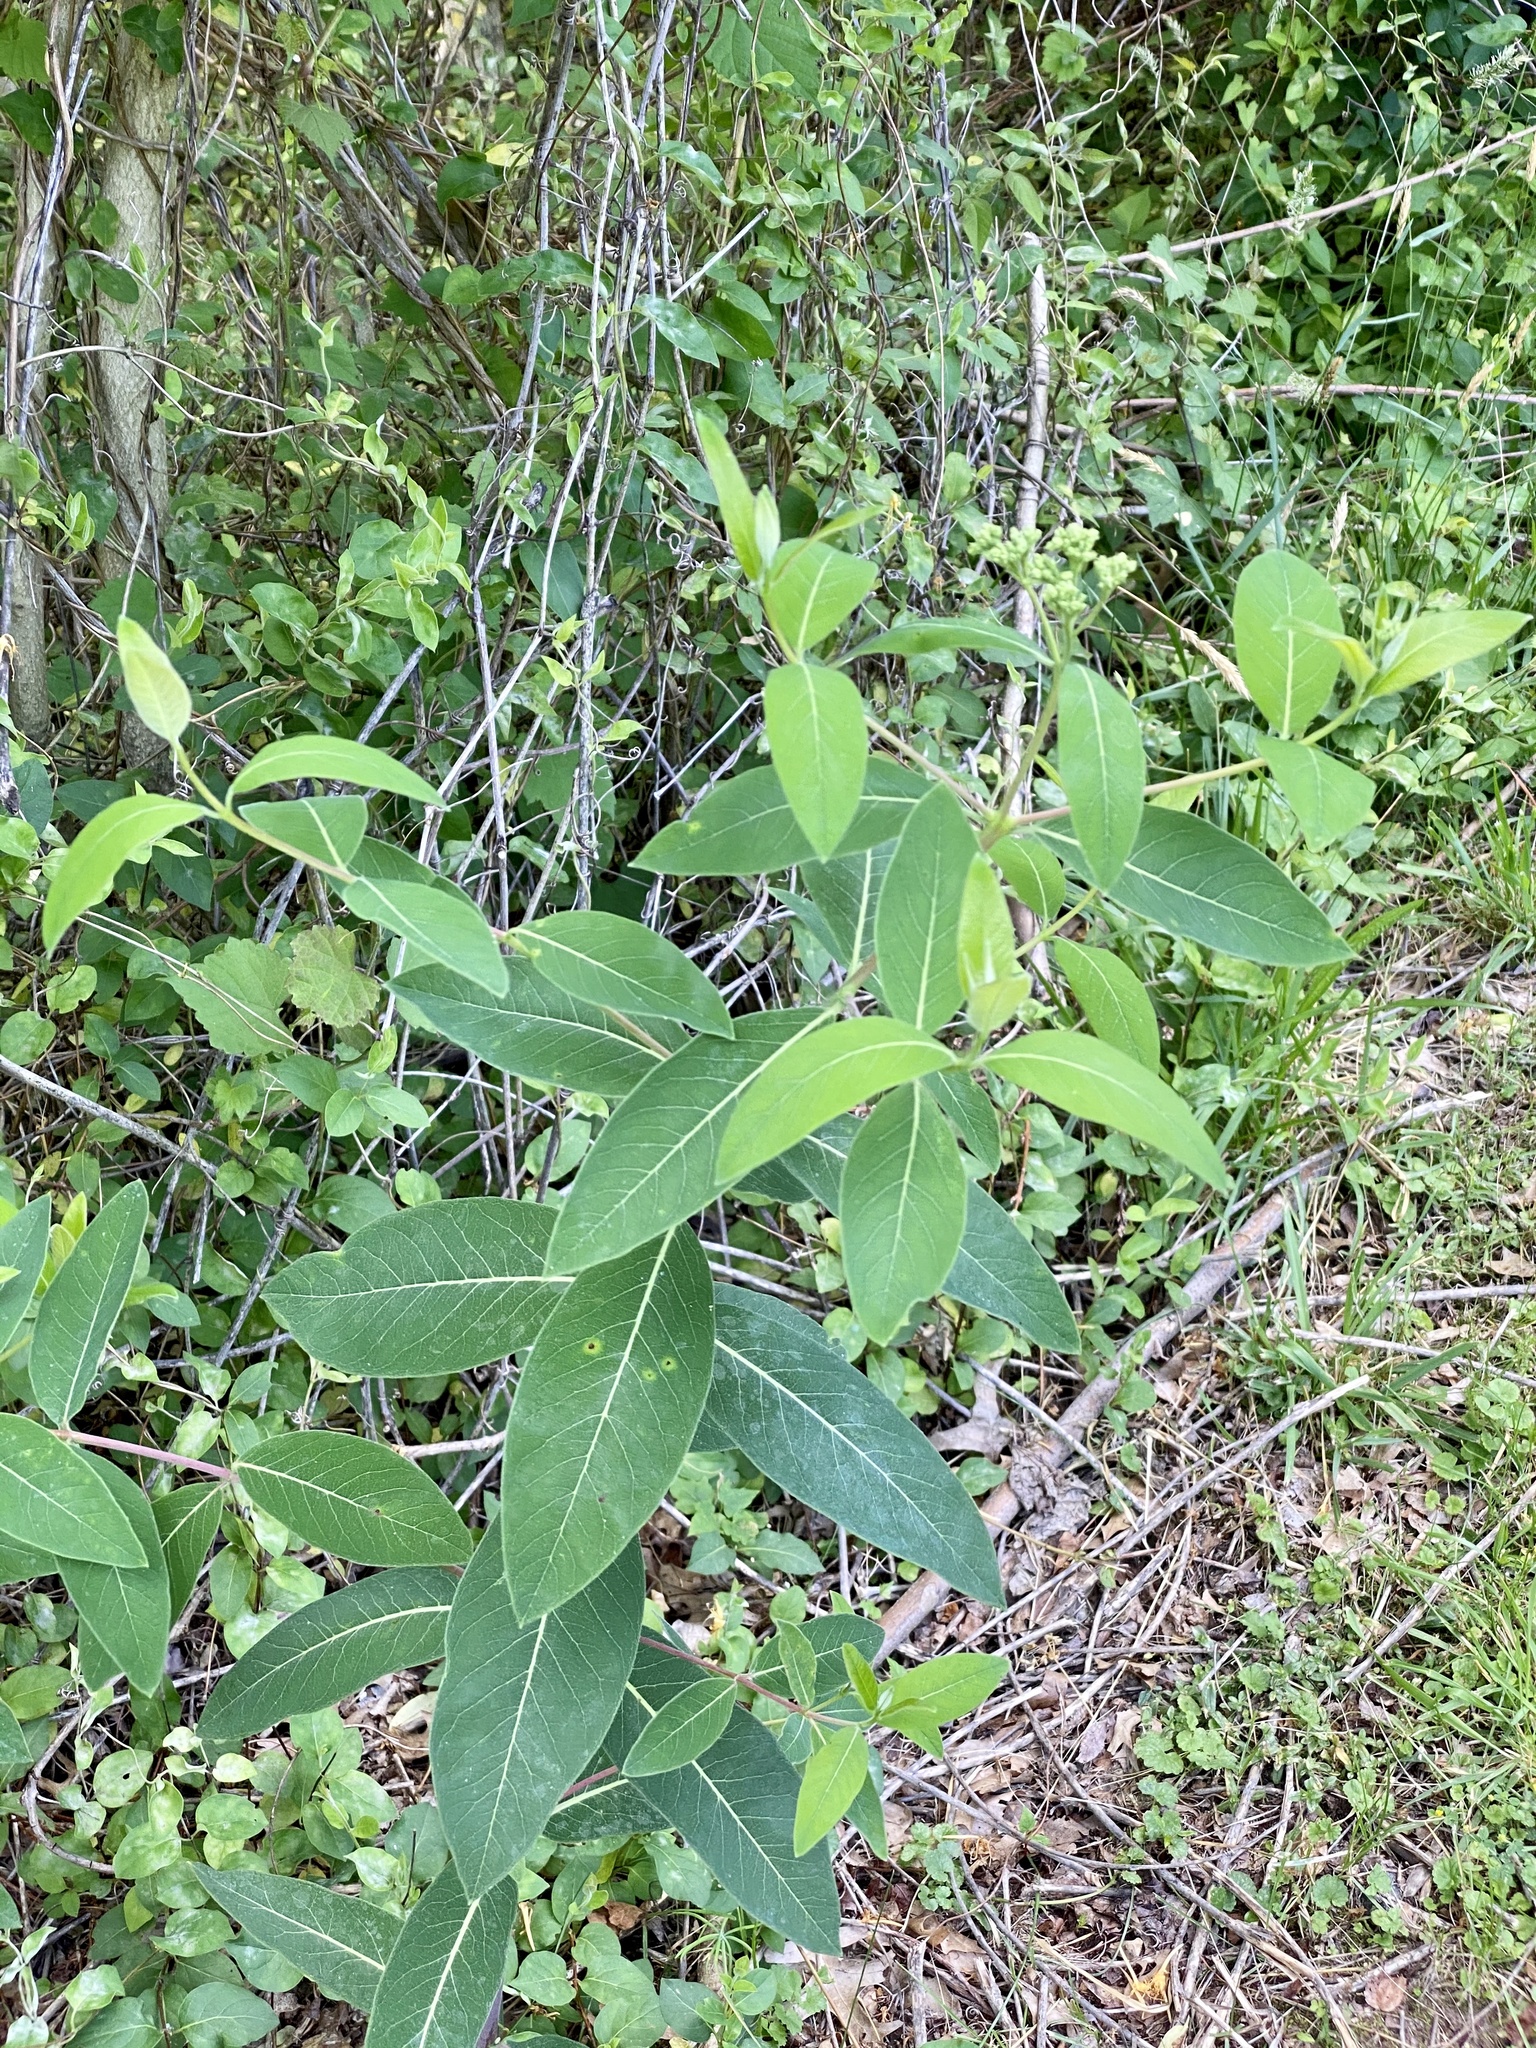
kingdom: Plantae
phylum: Tracheophyta
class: Magnoliopsida
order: Gentianales
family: Apocynaceae
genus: Apocynum
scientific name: Apocynum cannabinum
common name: Hemp dogbane
